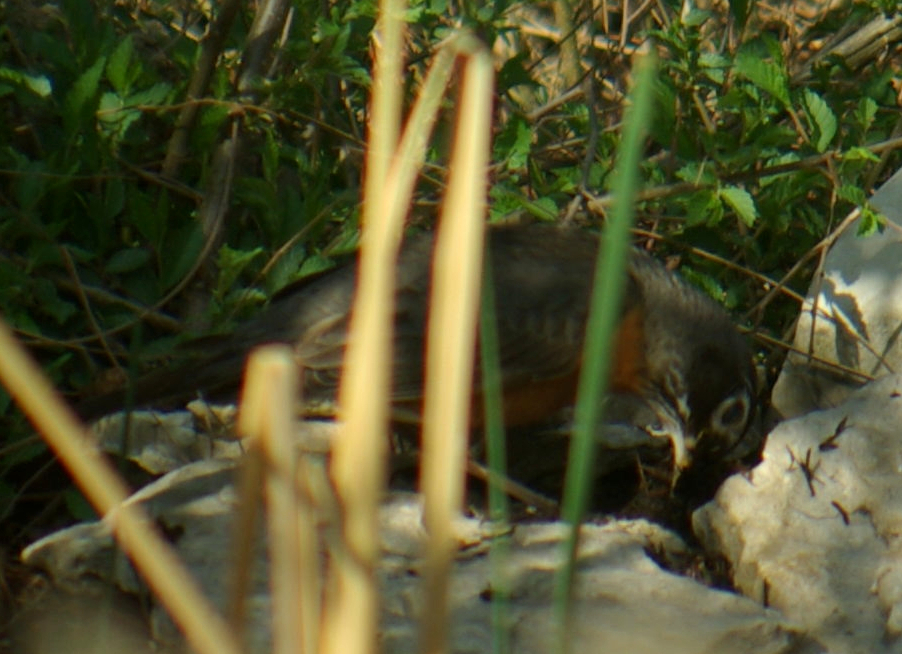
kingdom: Animalia
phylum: Chordata
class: Aves
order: Passeriformes
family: Turdidae
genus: Turdus
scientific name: Turdus migratorius
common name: American robin
